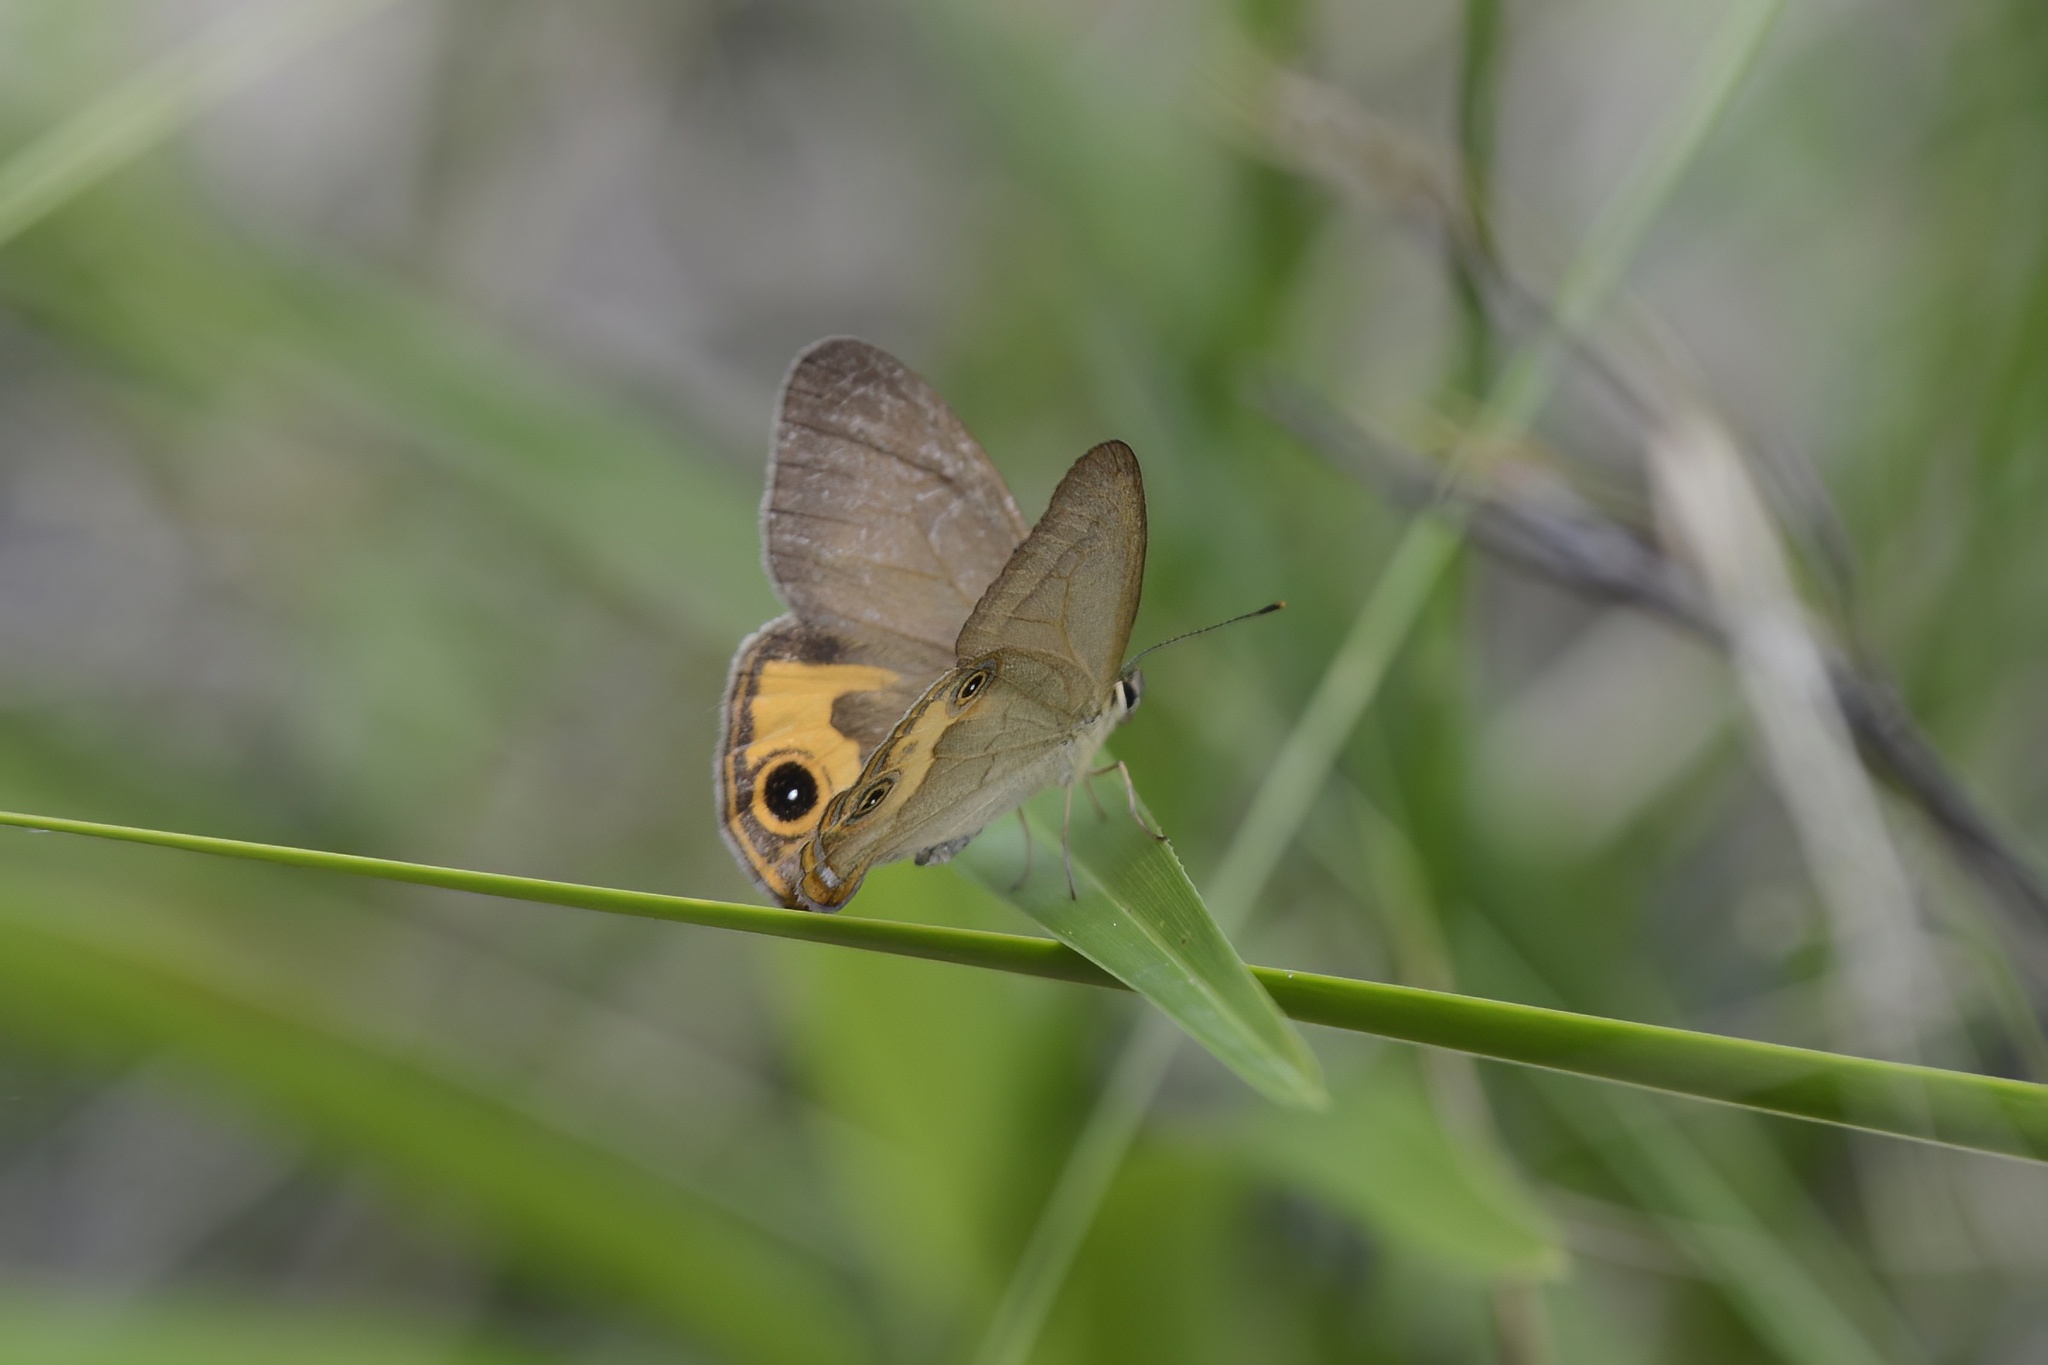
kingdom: Animalia
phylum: Arthropoda
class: Insecta
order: Lepidoptera
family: Nymphalidae
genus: Hypocysta
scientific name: Hypocysta metirius
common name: Brown ringlet
